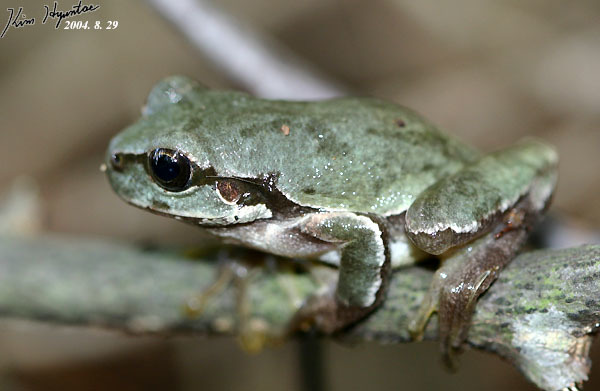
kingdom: Animalia
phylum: Chordata
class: Amphibia
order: Anura
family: Hylidae
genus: Dryophytes
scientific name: Dryophytes japonicus
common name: Japanese treefrog
